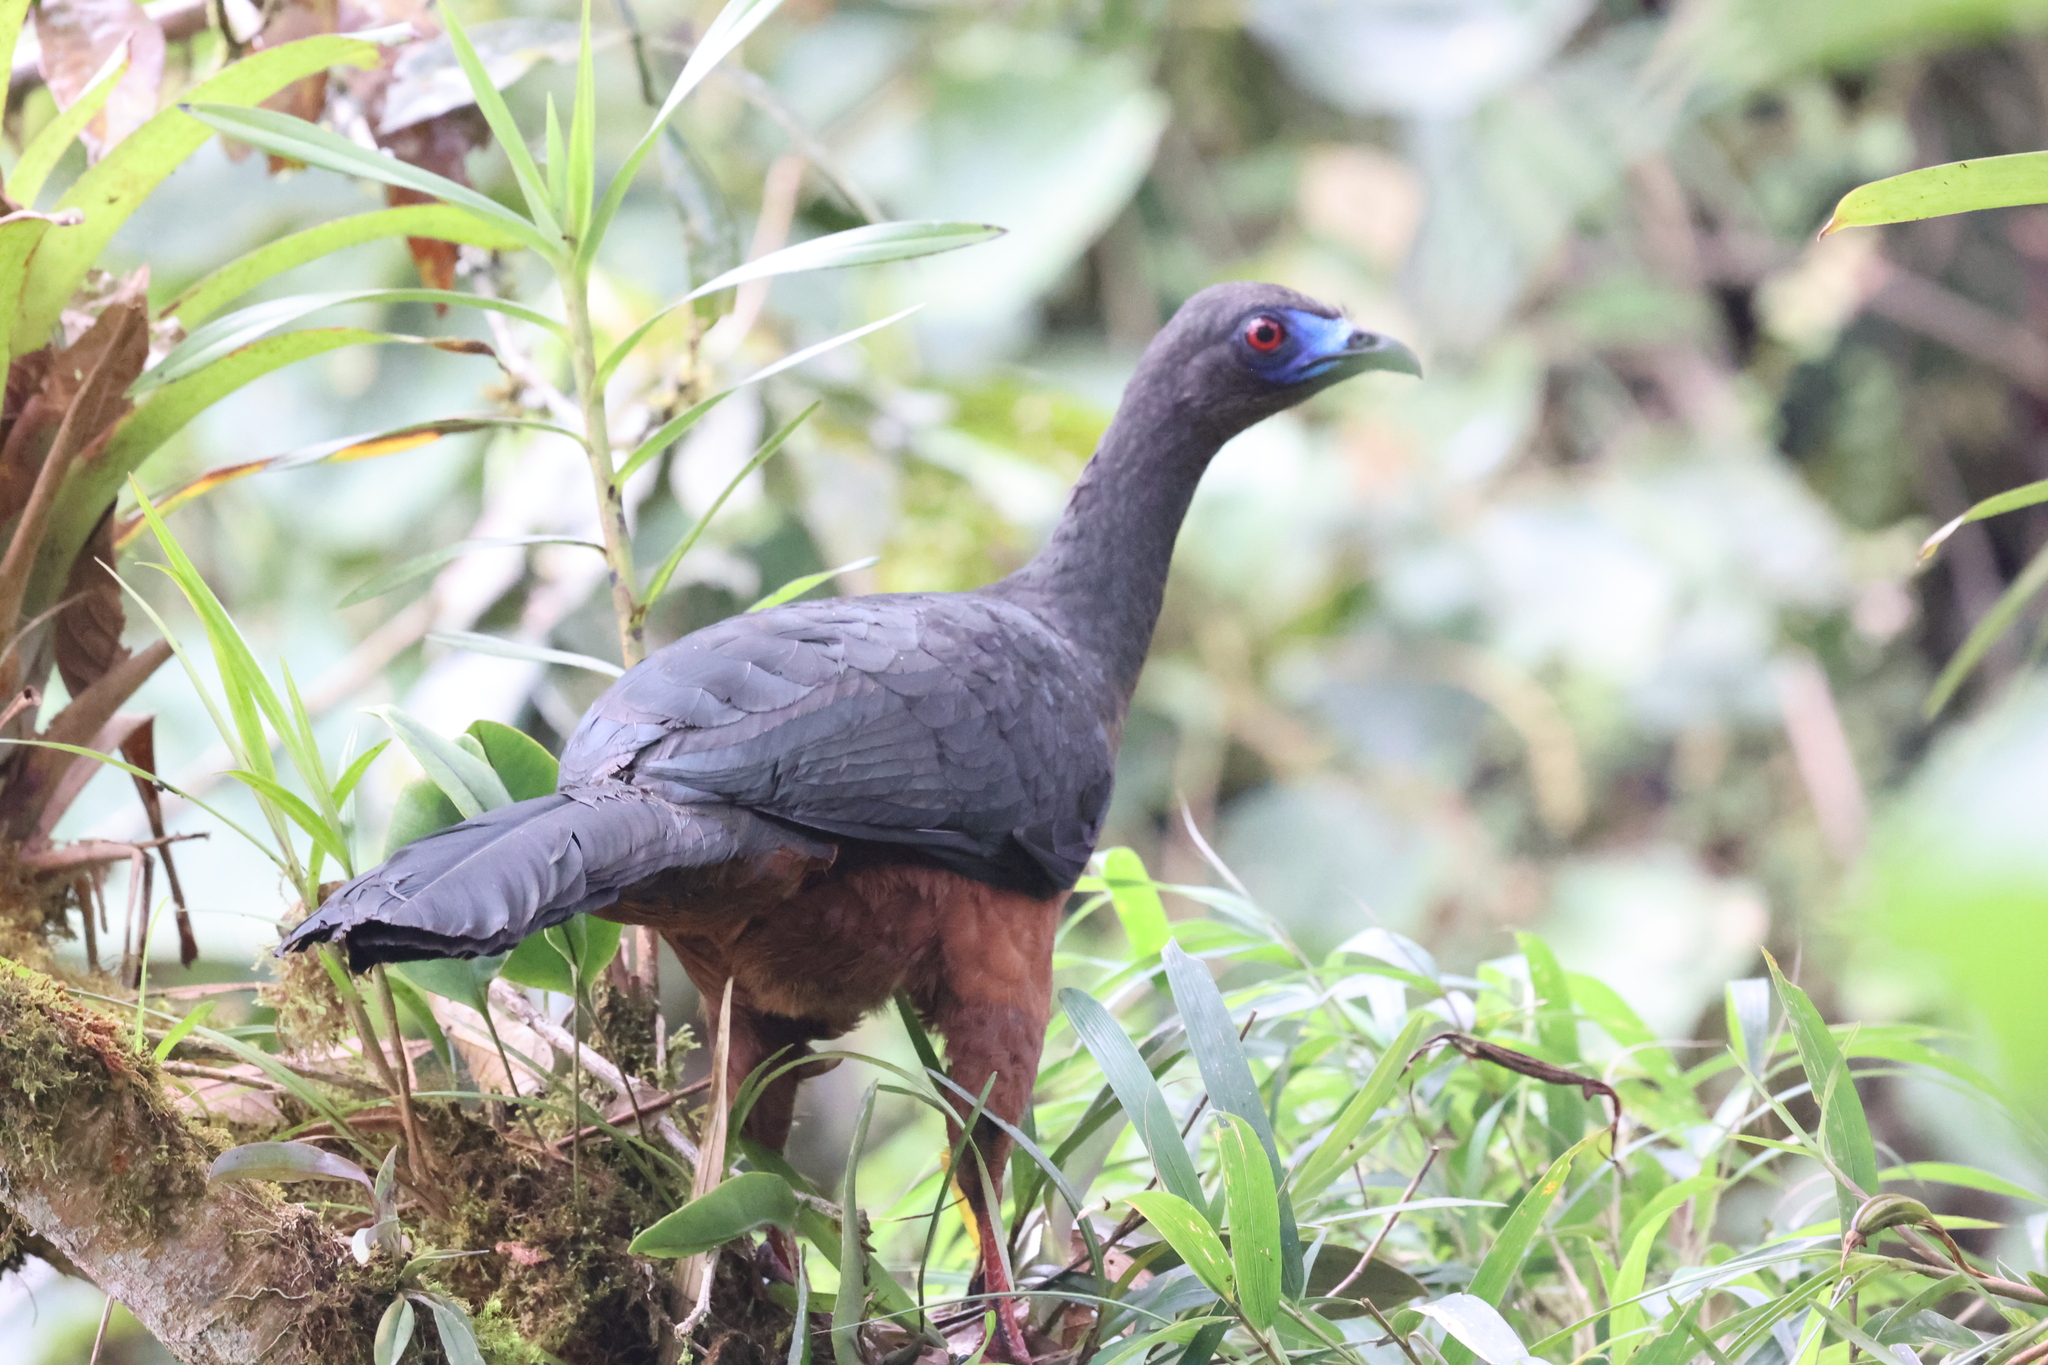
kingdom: Animalia
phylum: Chordata
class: Aves
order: Galliformes
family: Cracidae
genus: Chamaepetes
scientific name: Chamaepetes goudotii
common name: Sickle-winged guan
